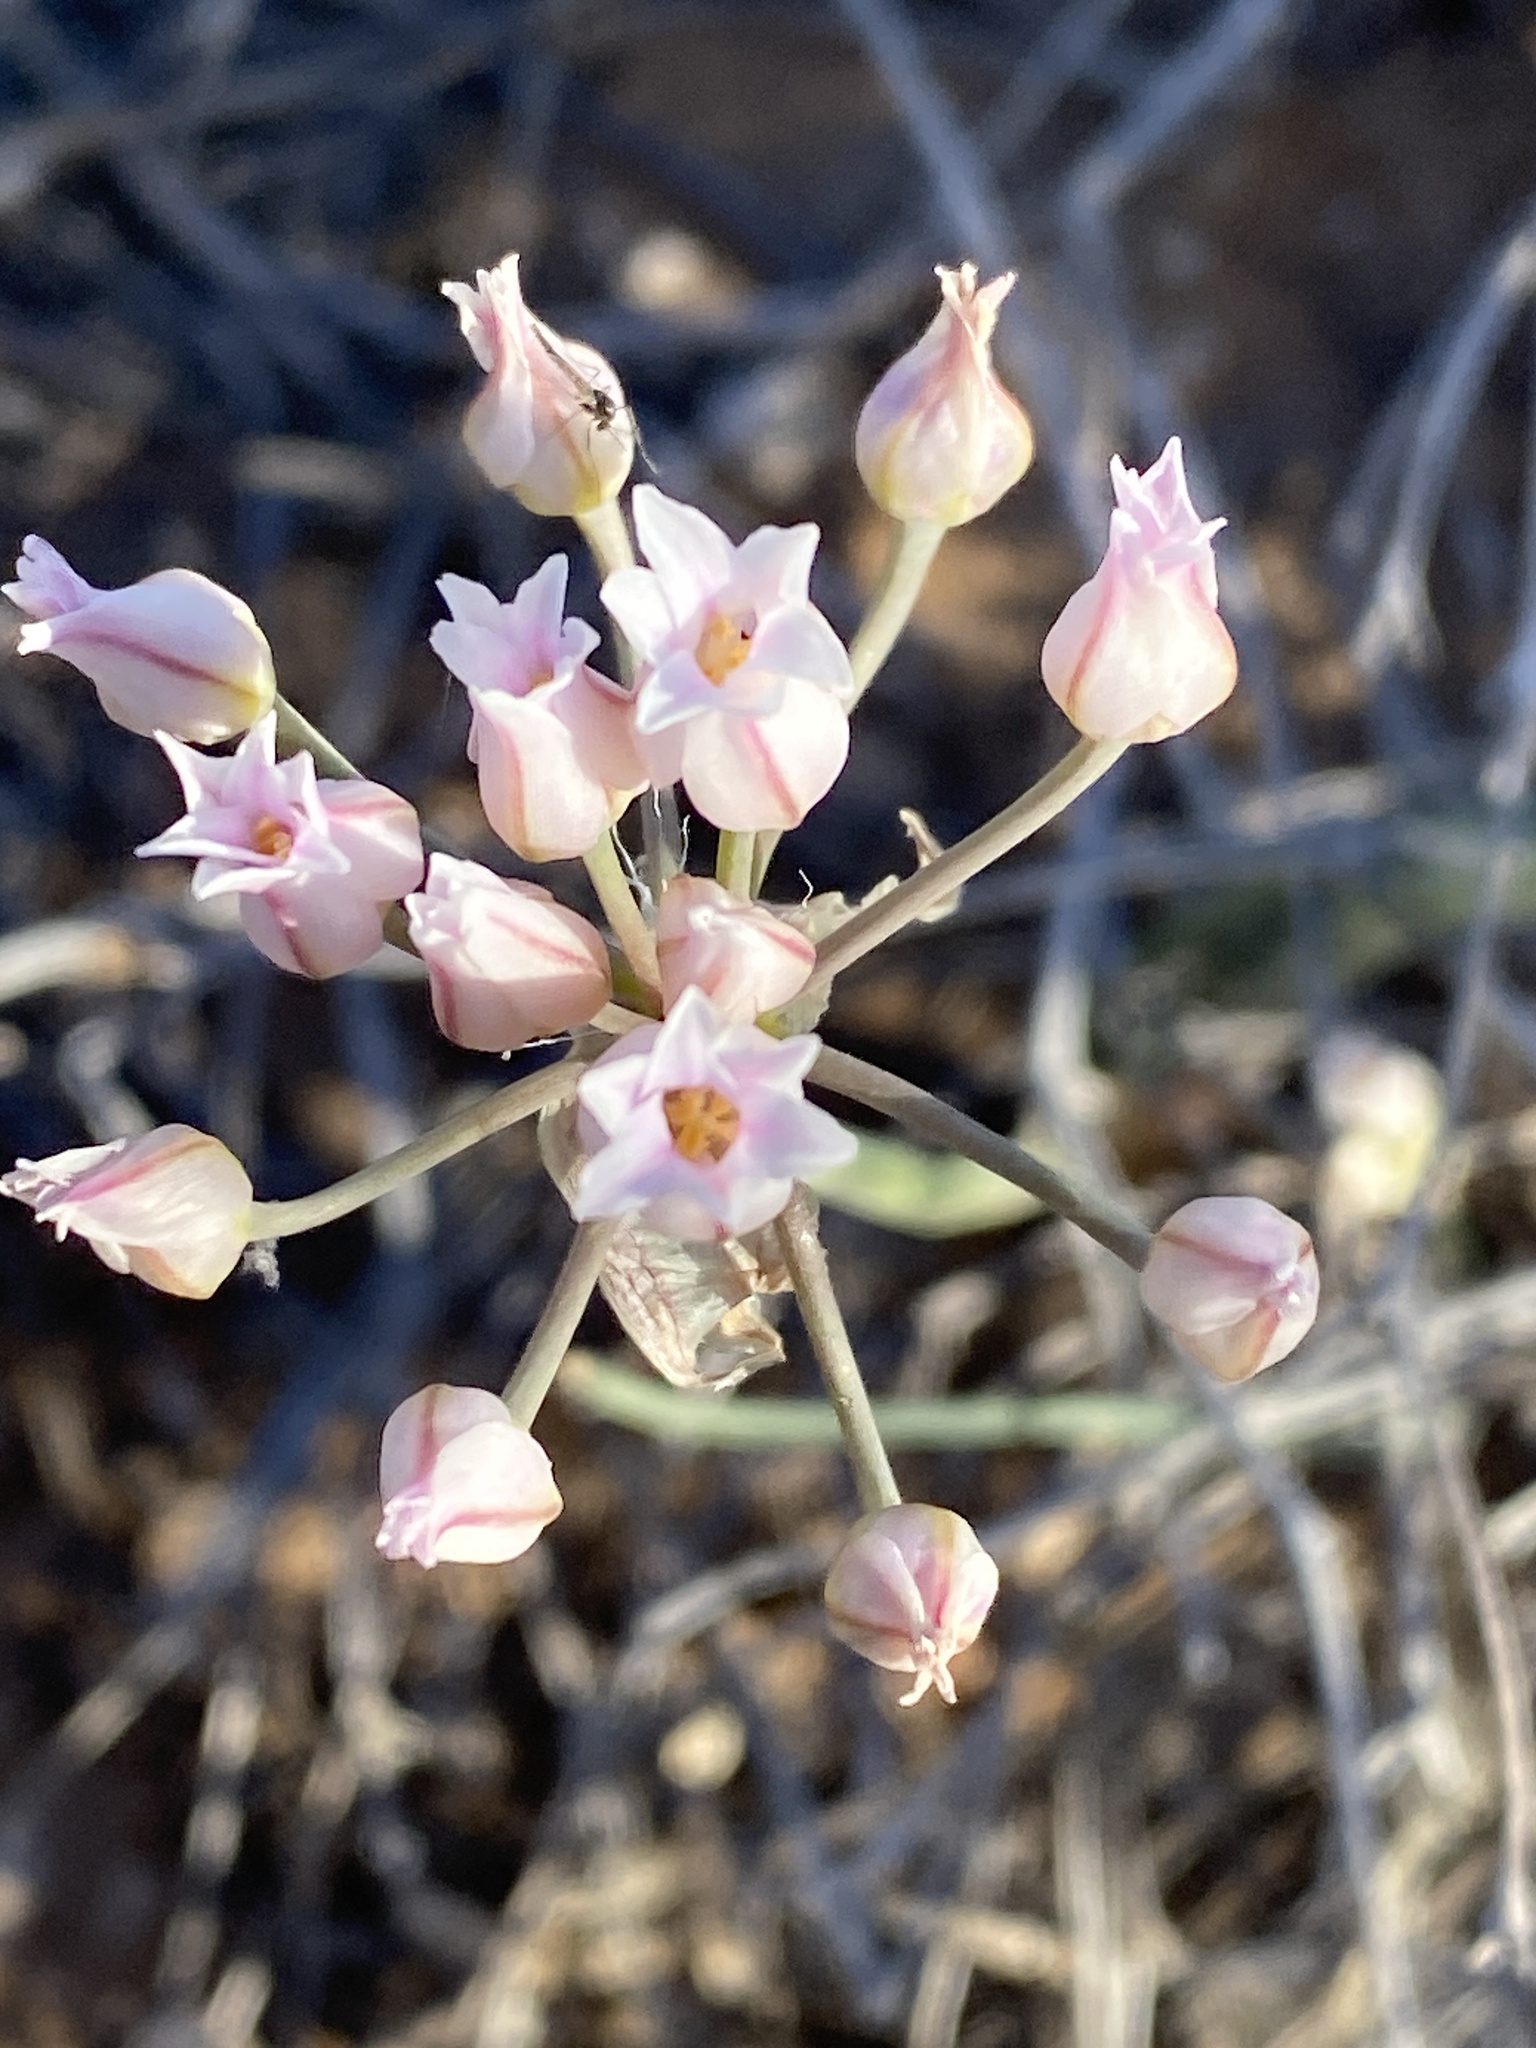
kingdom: Plantae
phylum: Tracheophyta
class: Liliopsida
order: Asparagales
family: Amaryllidaceae
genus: Allium
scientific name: Allium perdulce
